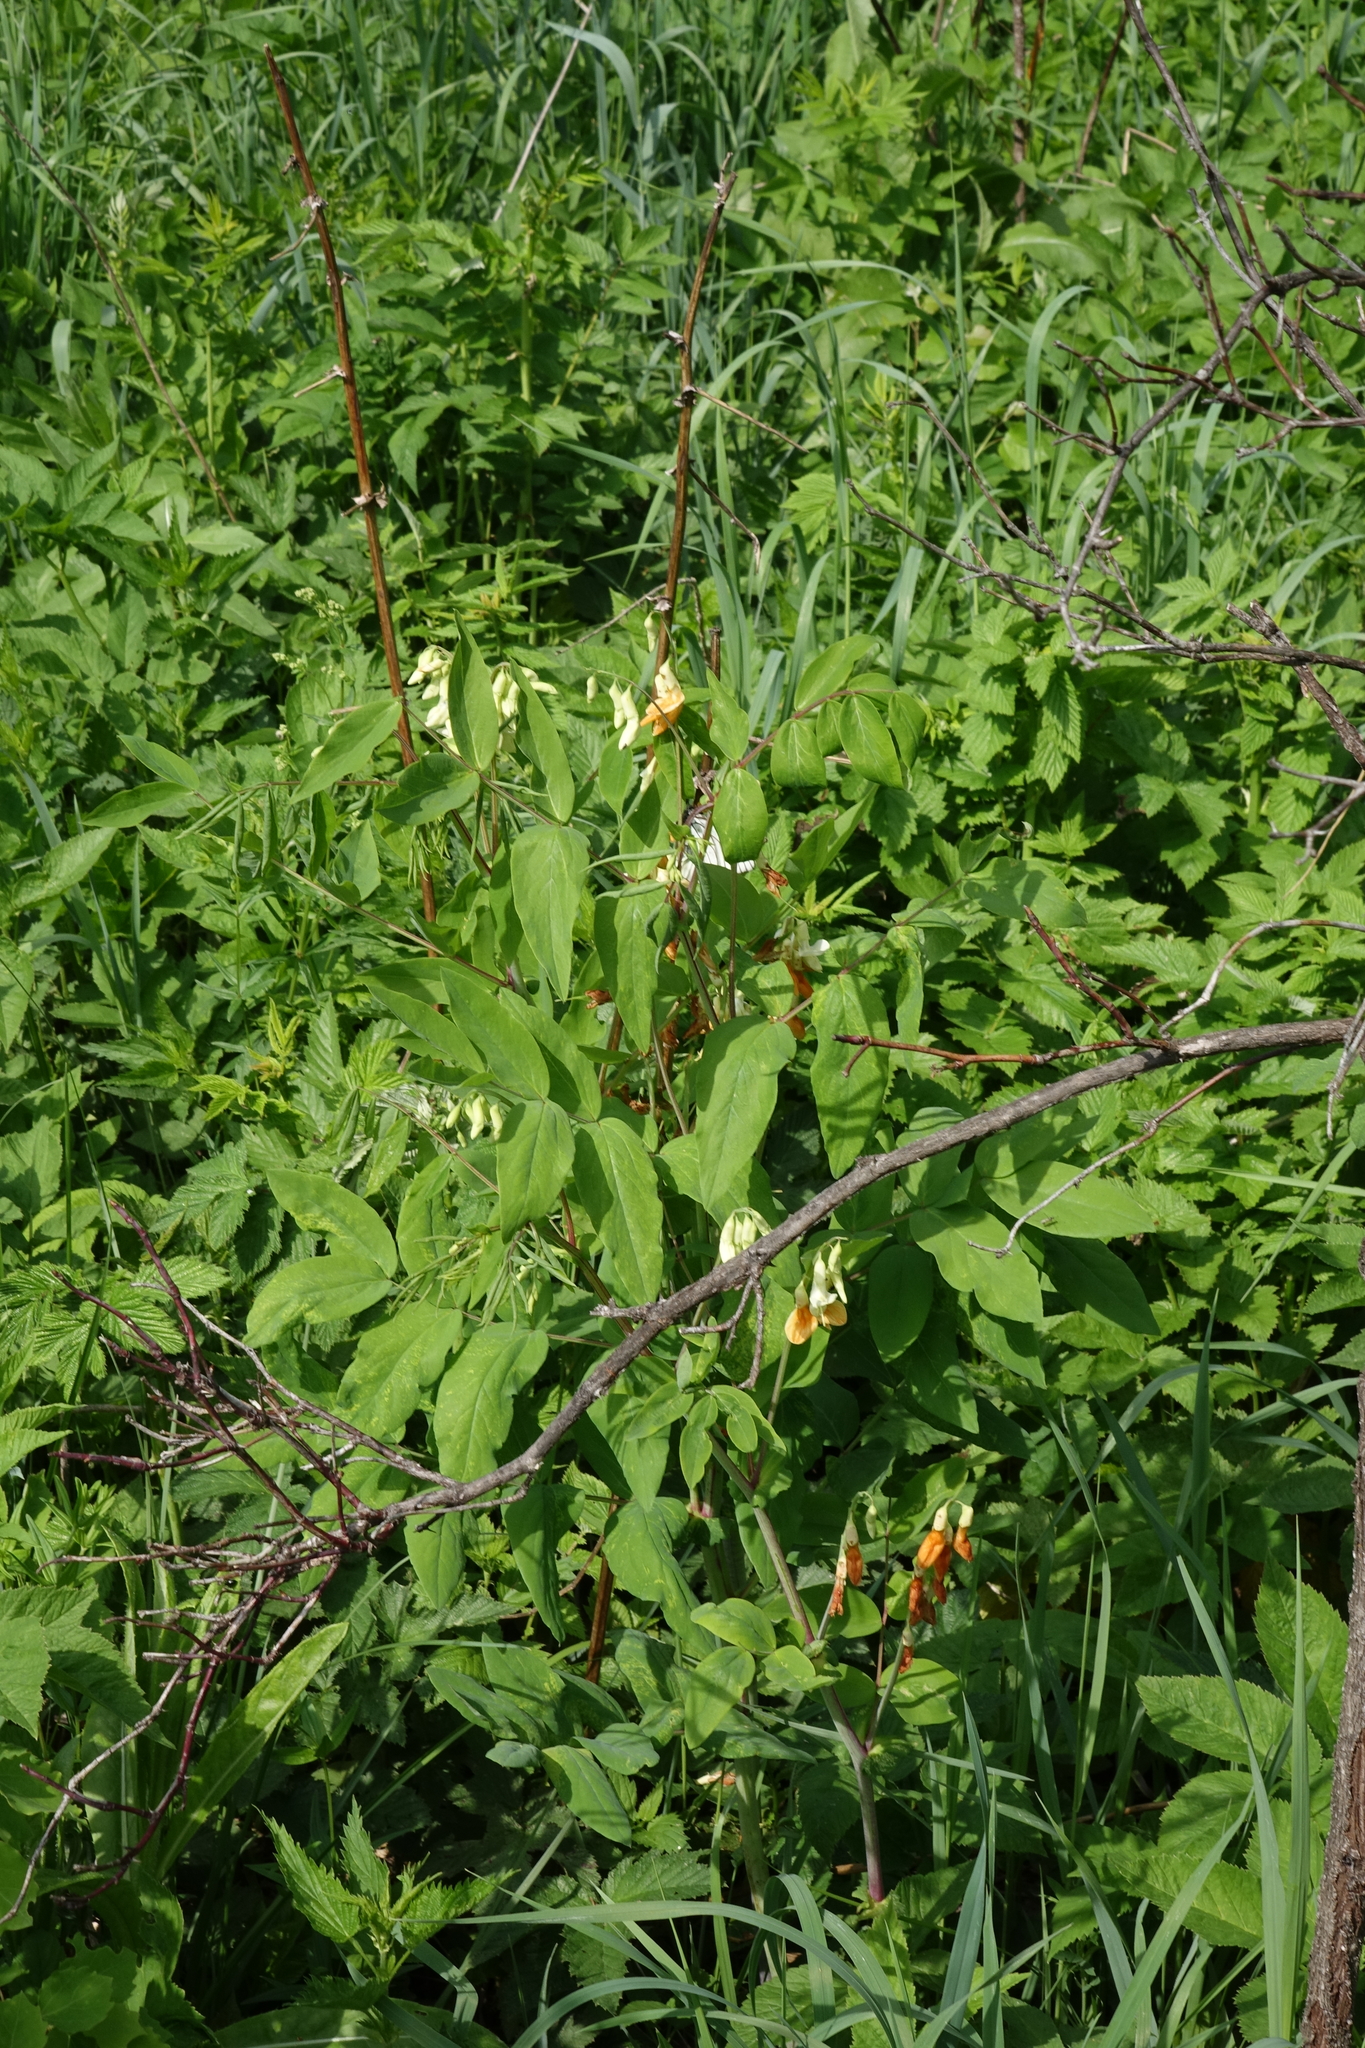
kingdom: Plantae
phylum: Tracheophyta
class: Magnoliopsida
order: Fabales
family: Fabaceae
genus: Lathyrus
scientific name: Lathyrus gmelinii
